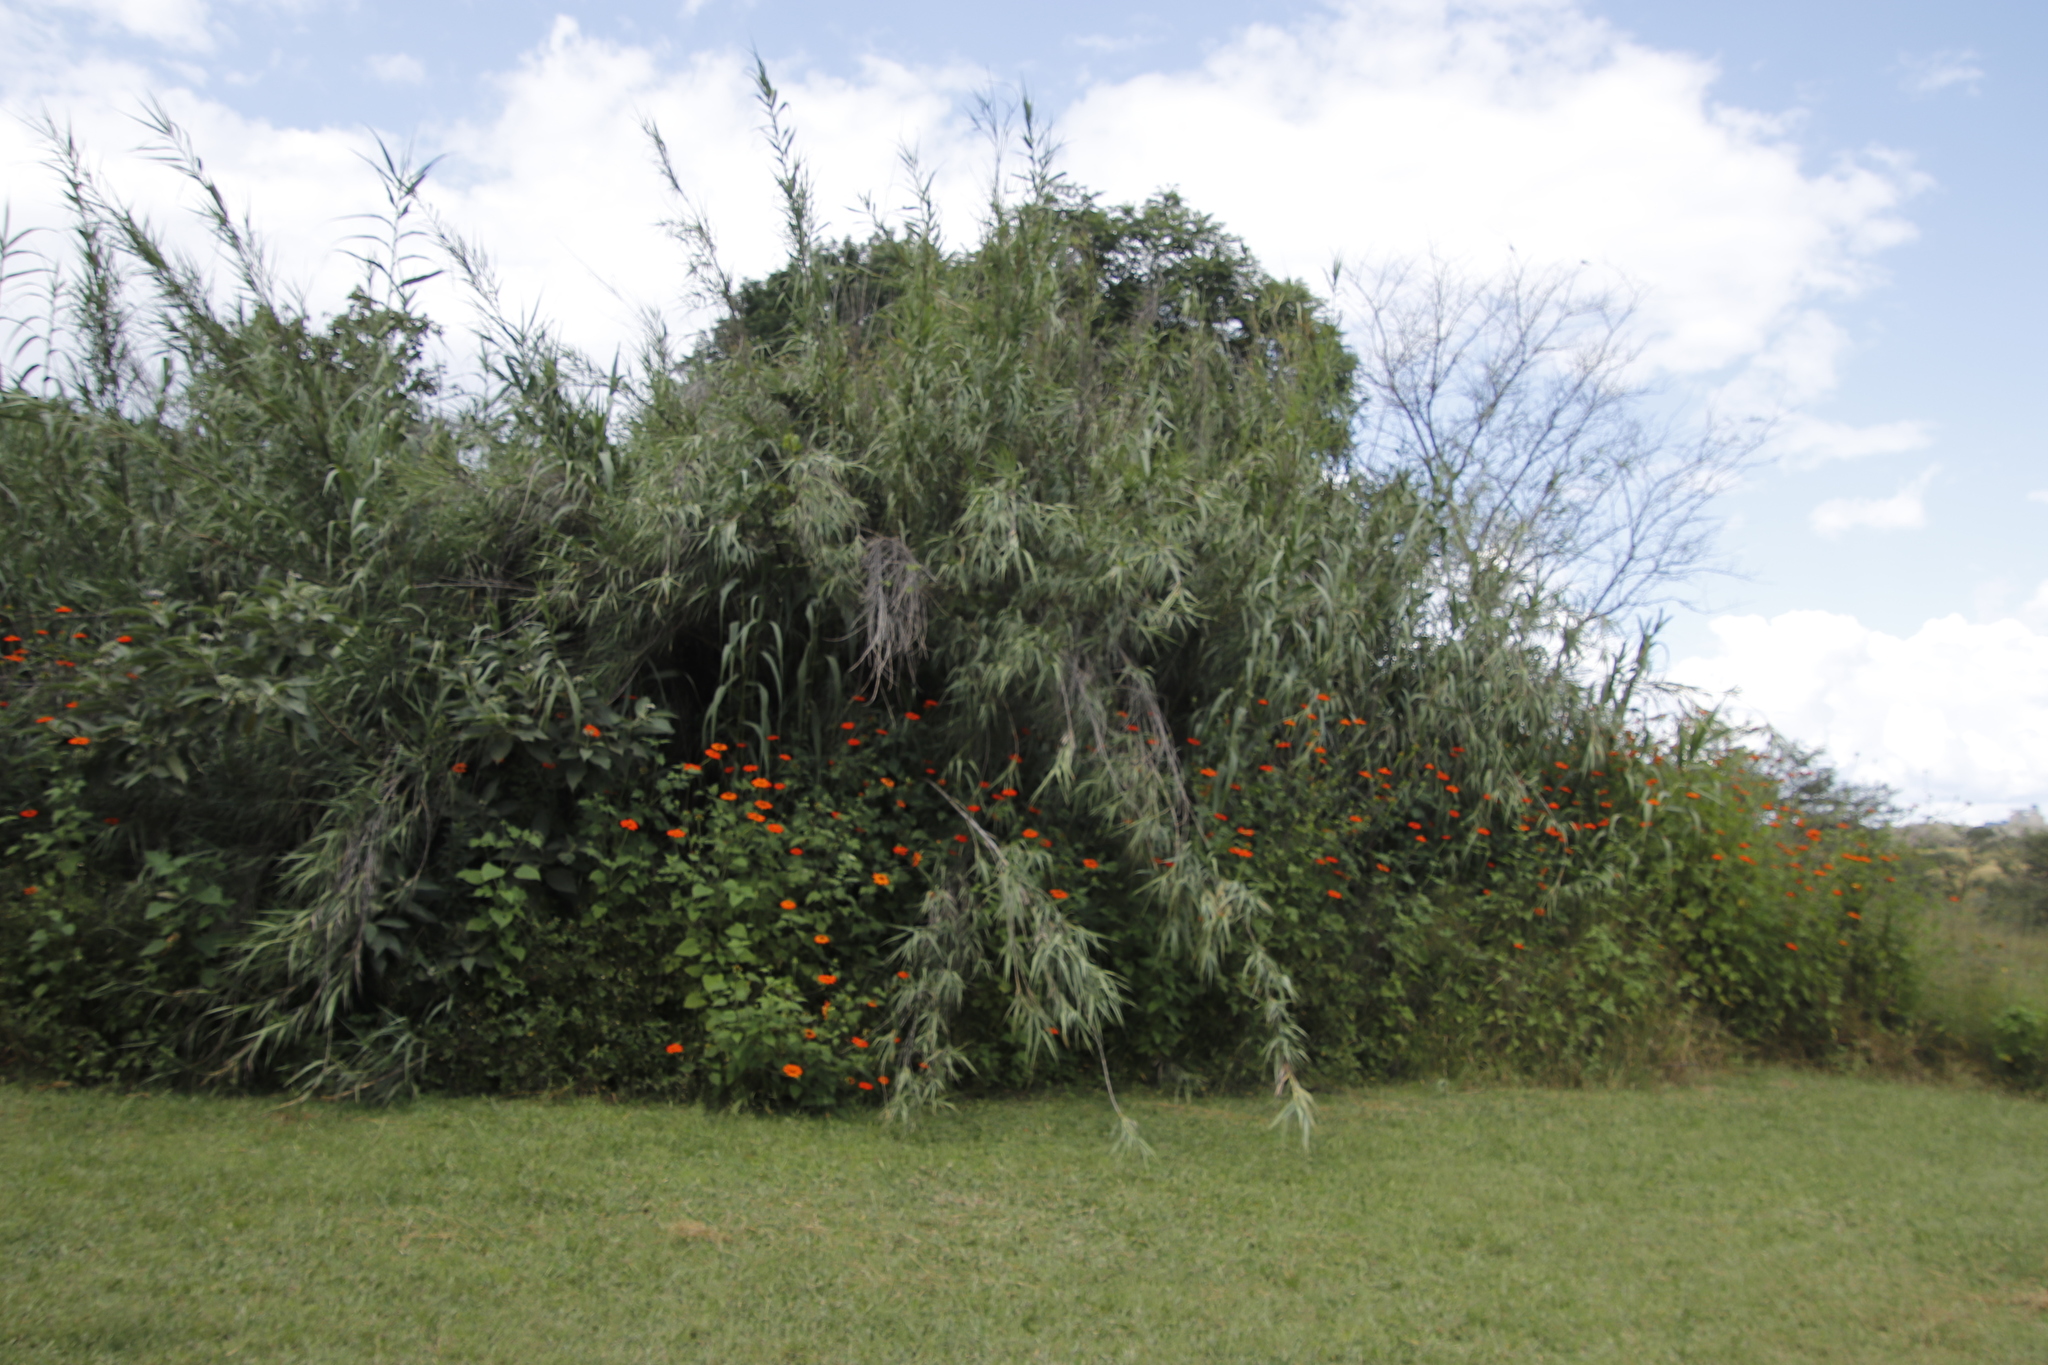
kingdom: Plantae
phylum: Tracheophyta
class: Magnoliopsida
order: Asterales
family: Asteraceae
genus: Tithonia
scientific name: Tithonia rotundifolia
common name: Sunflower
